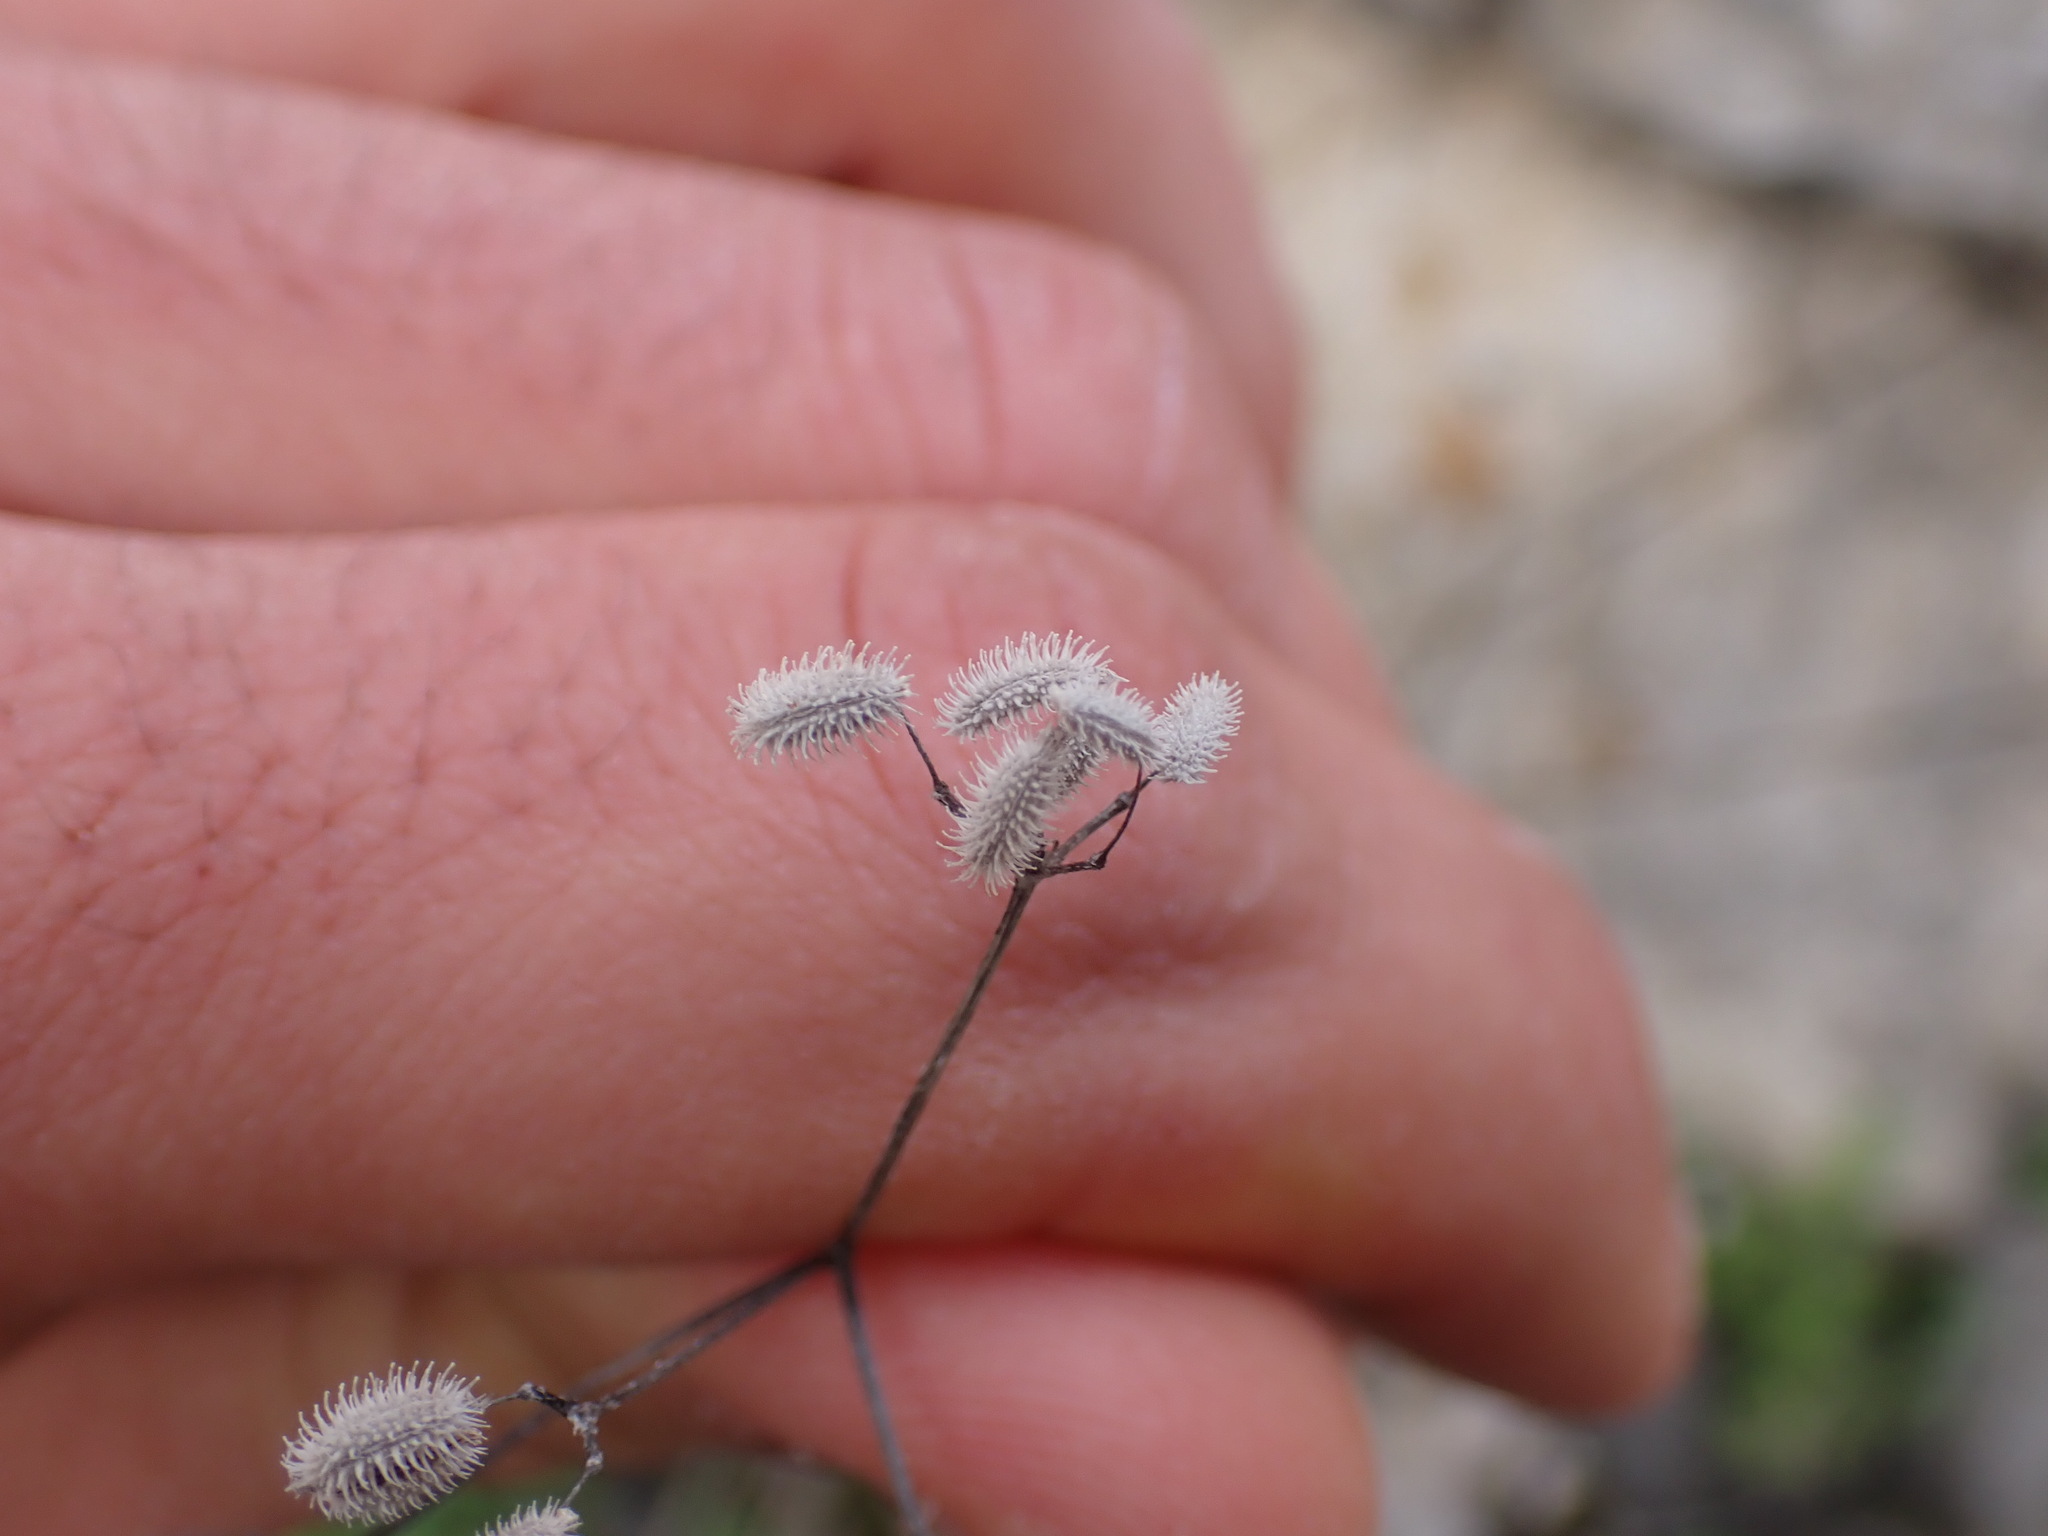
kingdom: Plantae
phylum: Tracheophyta
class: Magnoliopsida
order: Apiales
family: Apiaceae
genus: Torilis
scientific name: Torilis arvensis
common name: Spreading hedge-parsley
